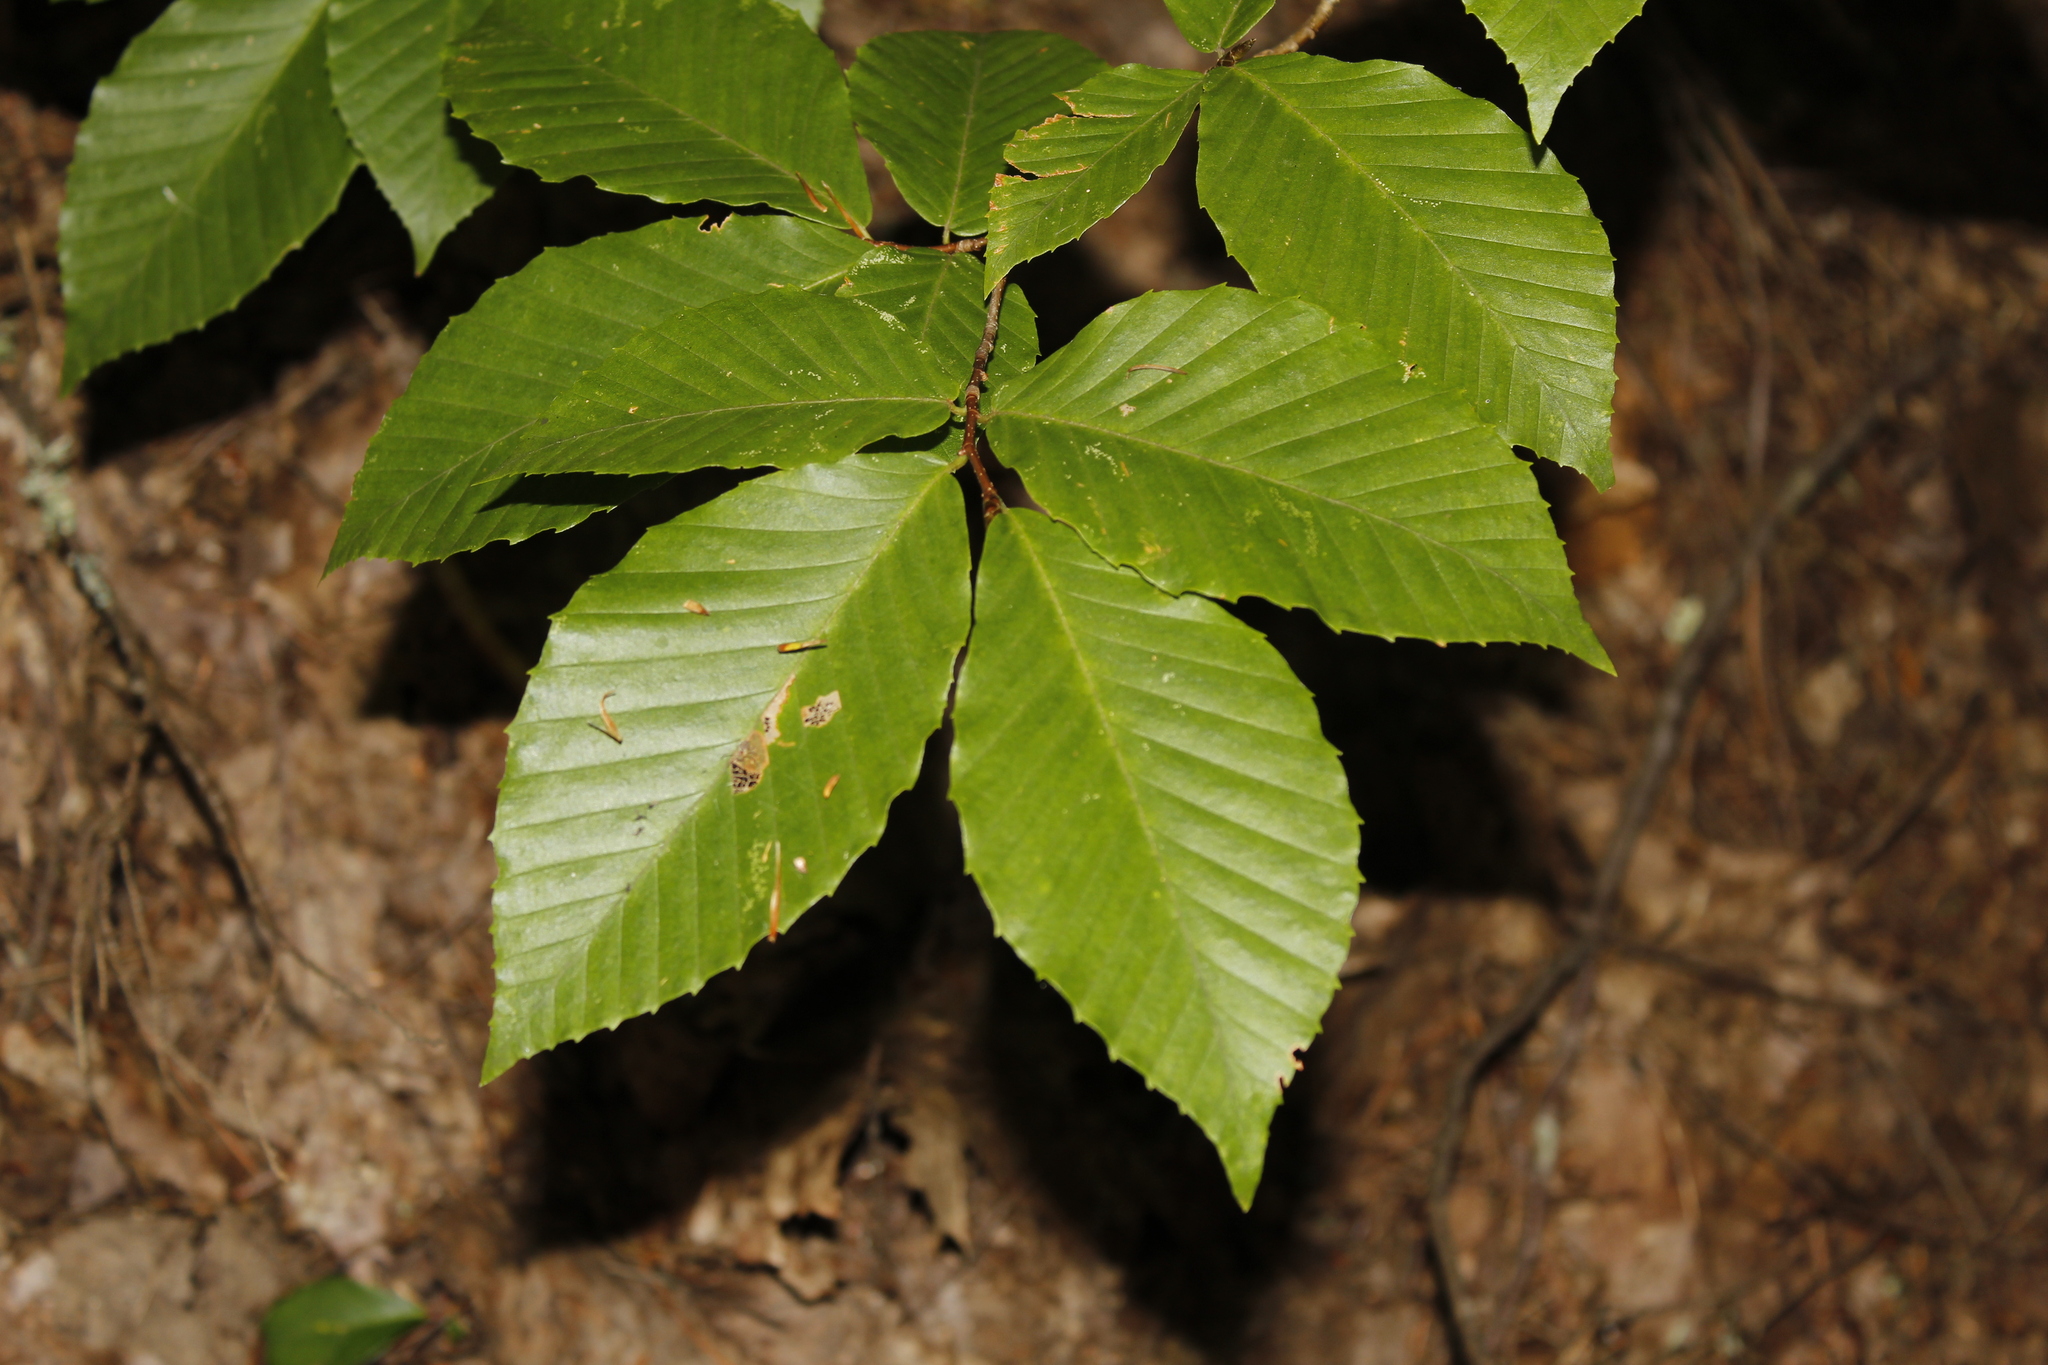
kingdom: Plantae
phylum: Tracheophyta
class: Magnoliopsida
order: Fagales
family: Fagaceae
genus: Fagus
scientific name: Fagus grandifolia
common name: American beech
